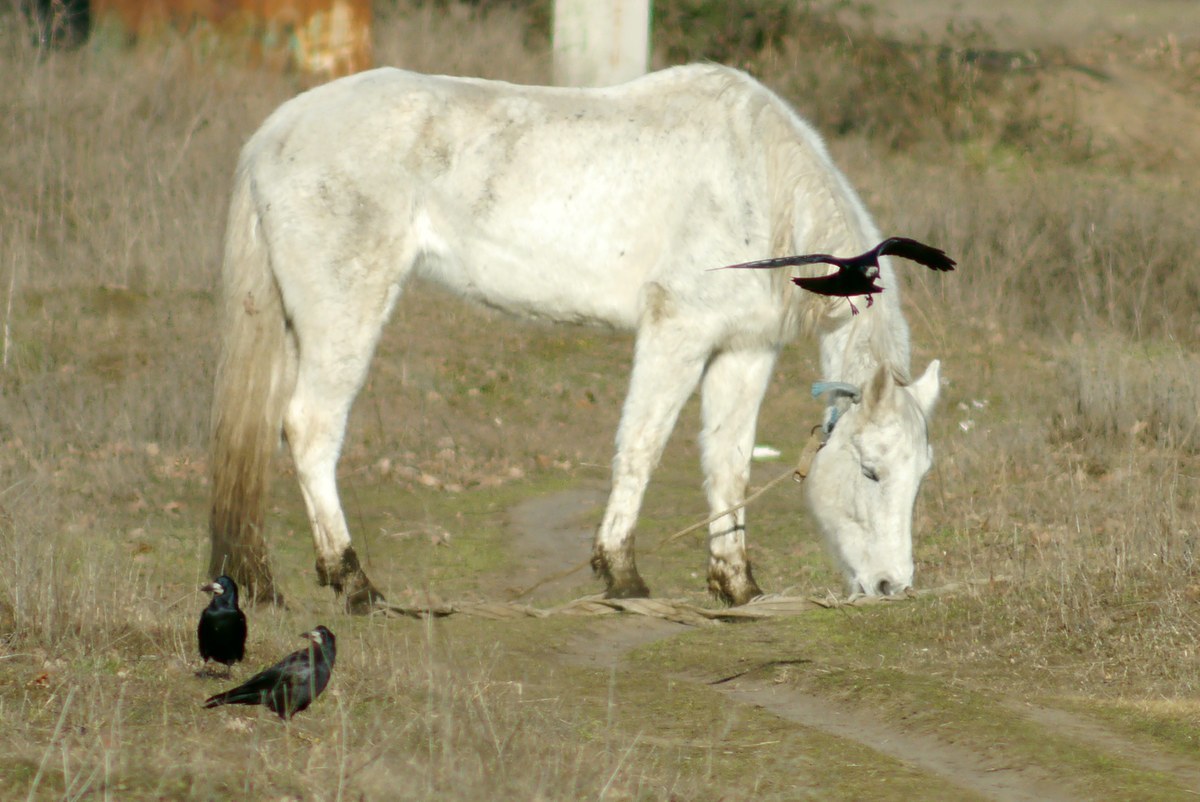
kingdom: Animalia
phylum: Chordata
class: Aves
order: Passeriformes
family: Corvidae
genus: Corvus
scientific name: Corvus frugilegus
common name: Rook
